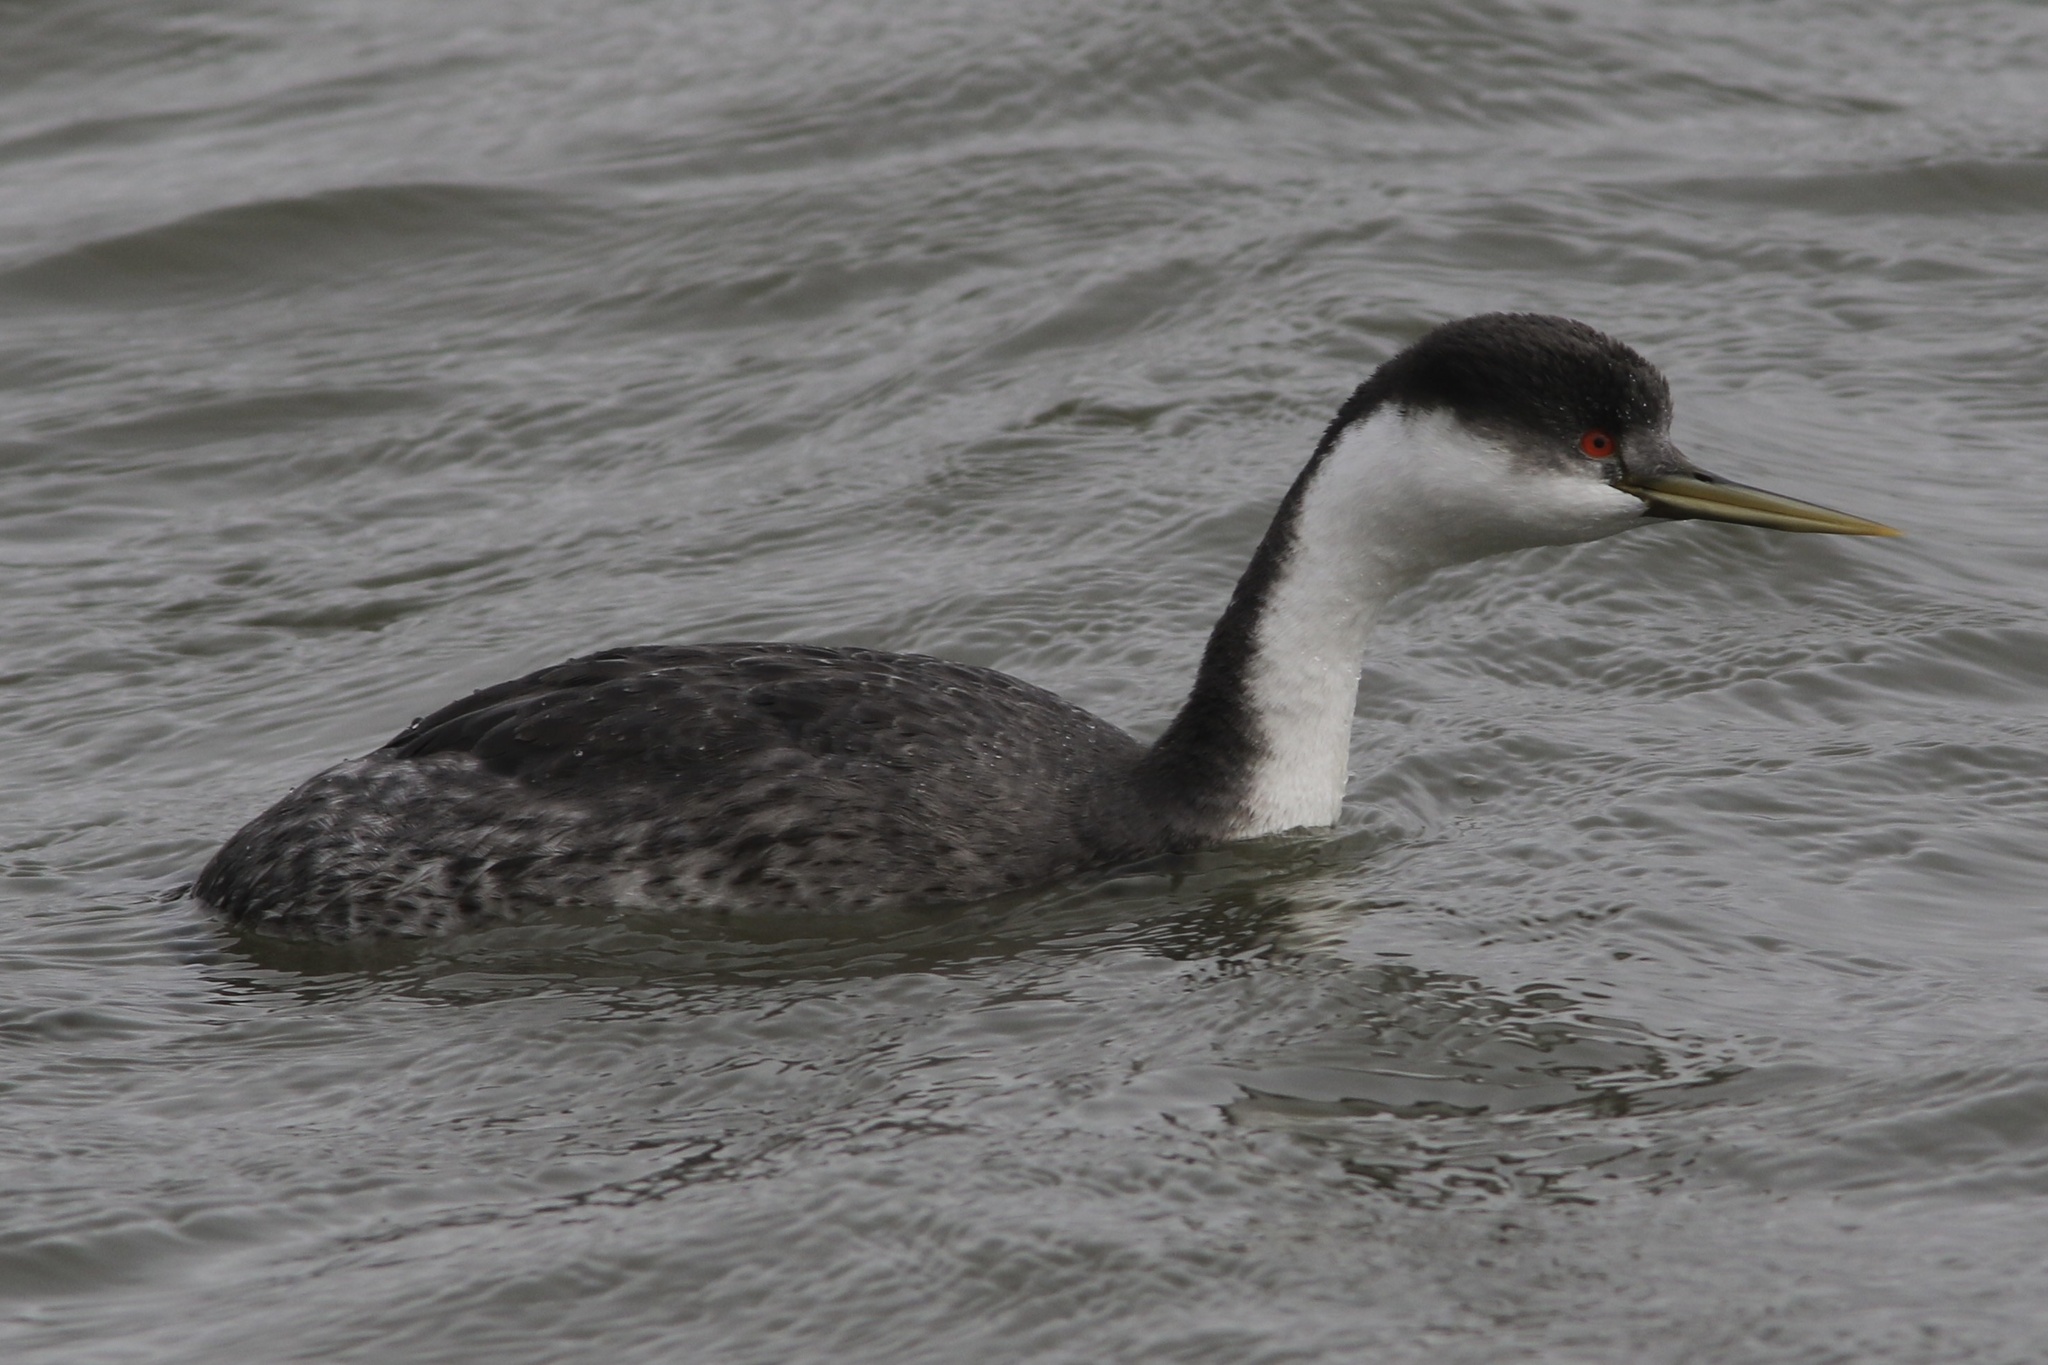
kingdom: Animalia
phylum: Chordata
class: Aves
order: Podicipediformes
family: Podicipedidae
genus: Aechmophorus
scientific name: Aechmophorus occidentalis
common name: Western grebe
